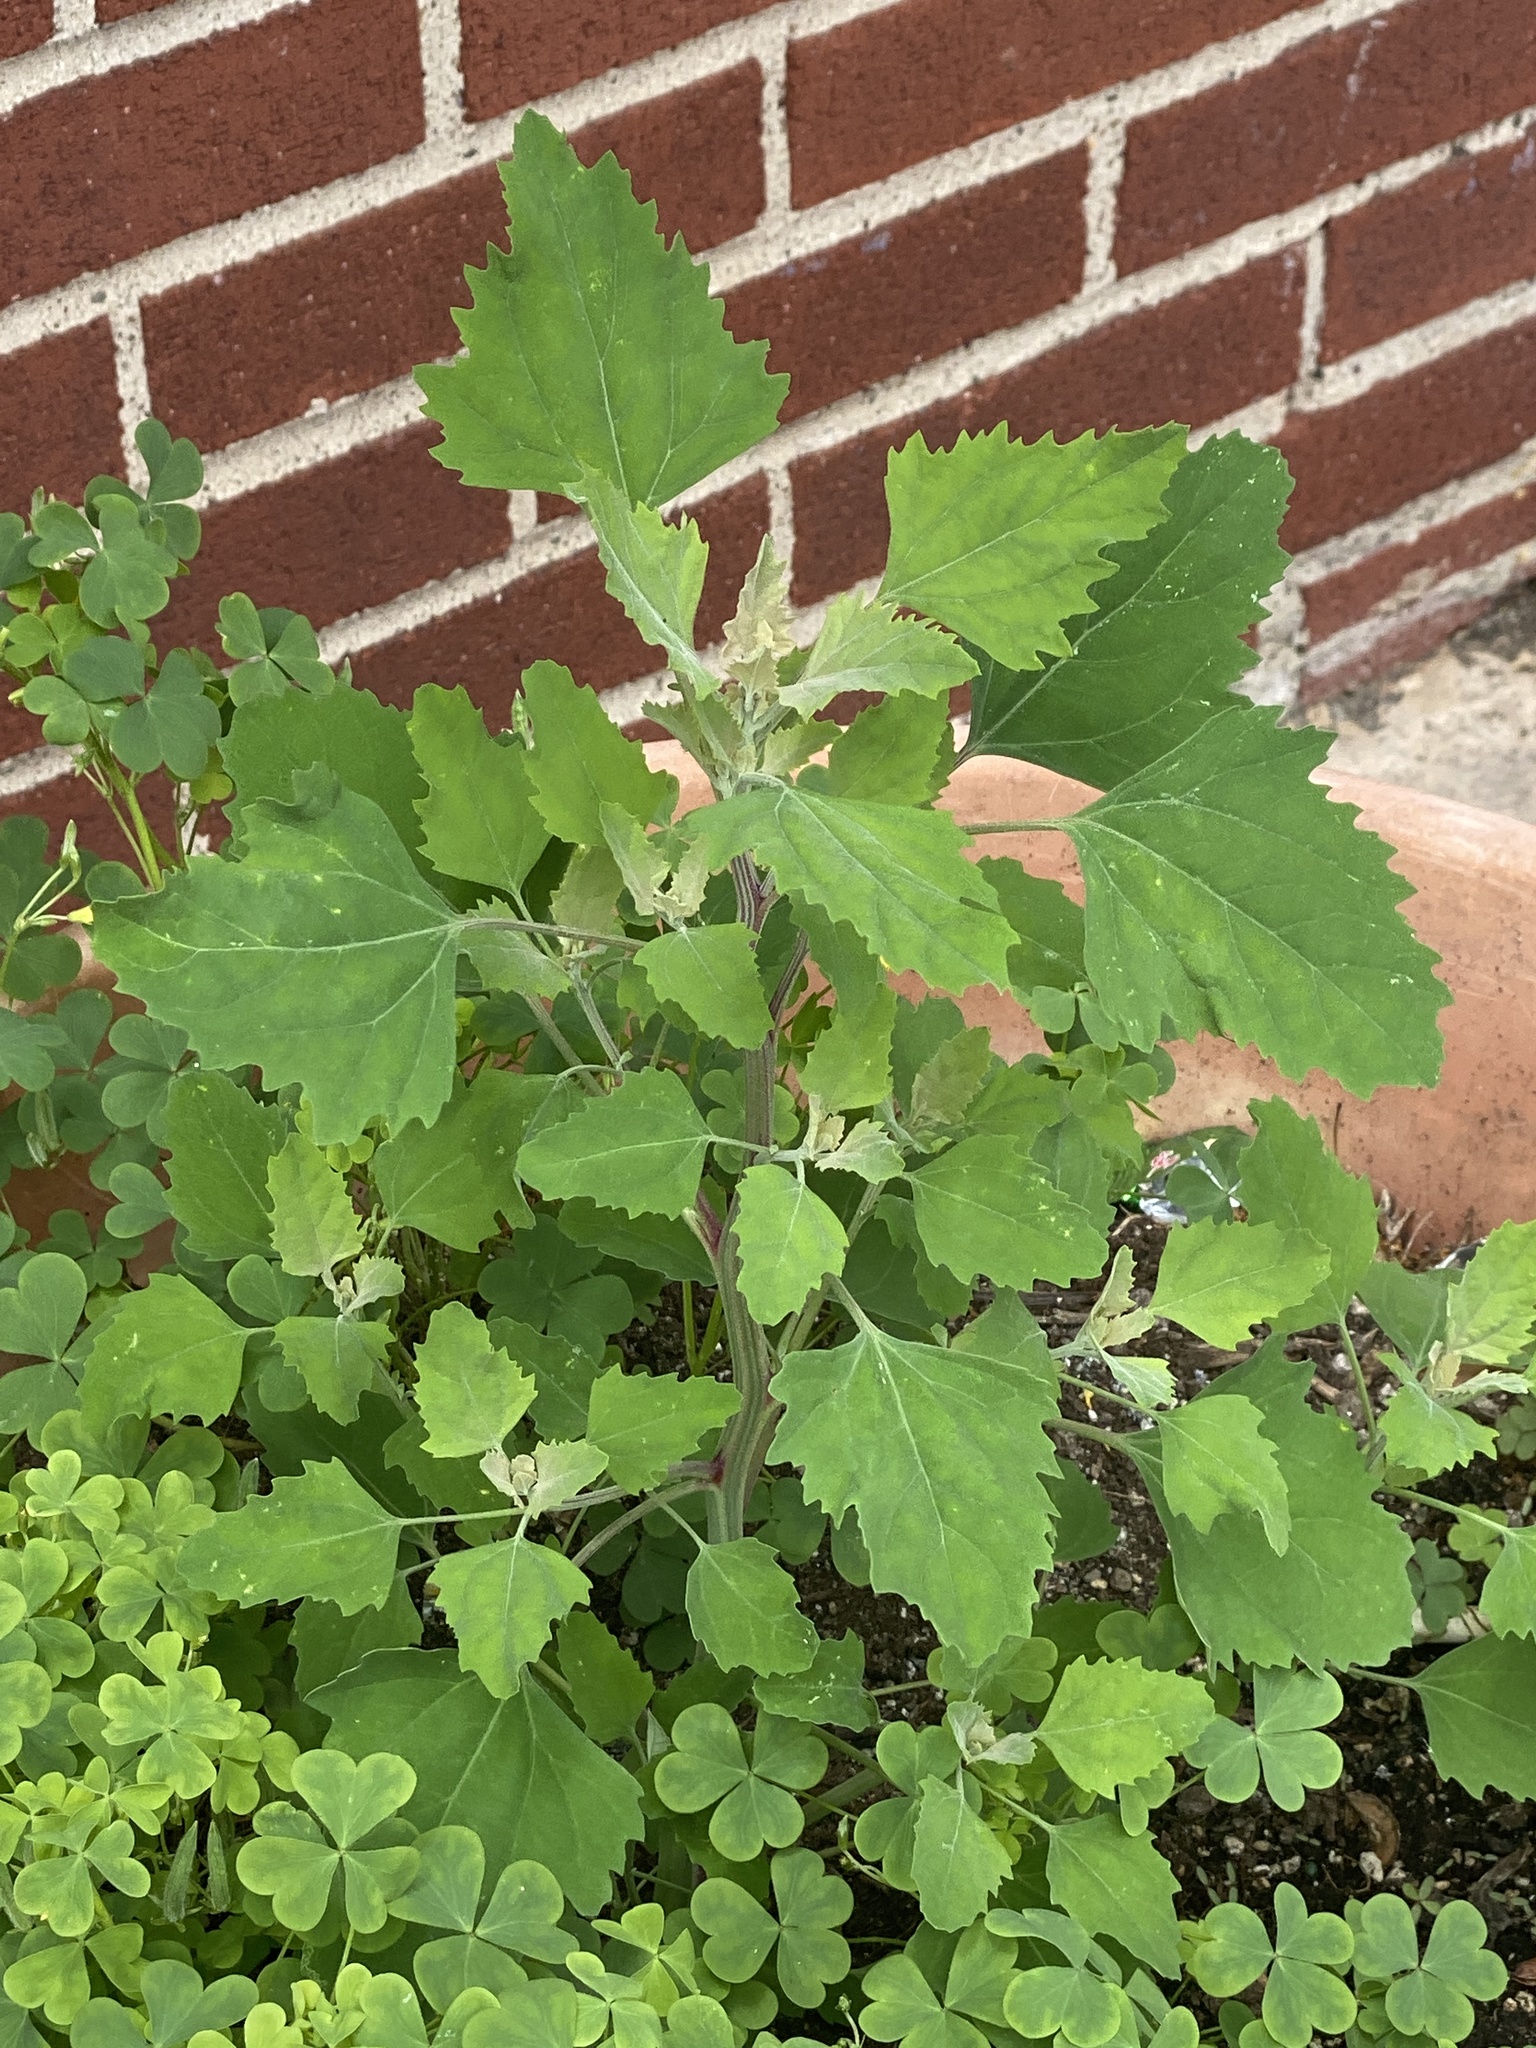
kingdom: Plantae
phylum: Tracheophyta
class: Magnoliopsida
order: Caryophyllales
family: Amaranthaceae
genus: Chenopodium
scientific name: Chenopodium album
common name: Fat-hen
